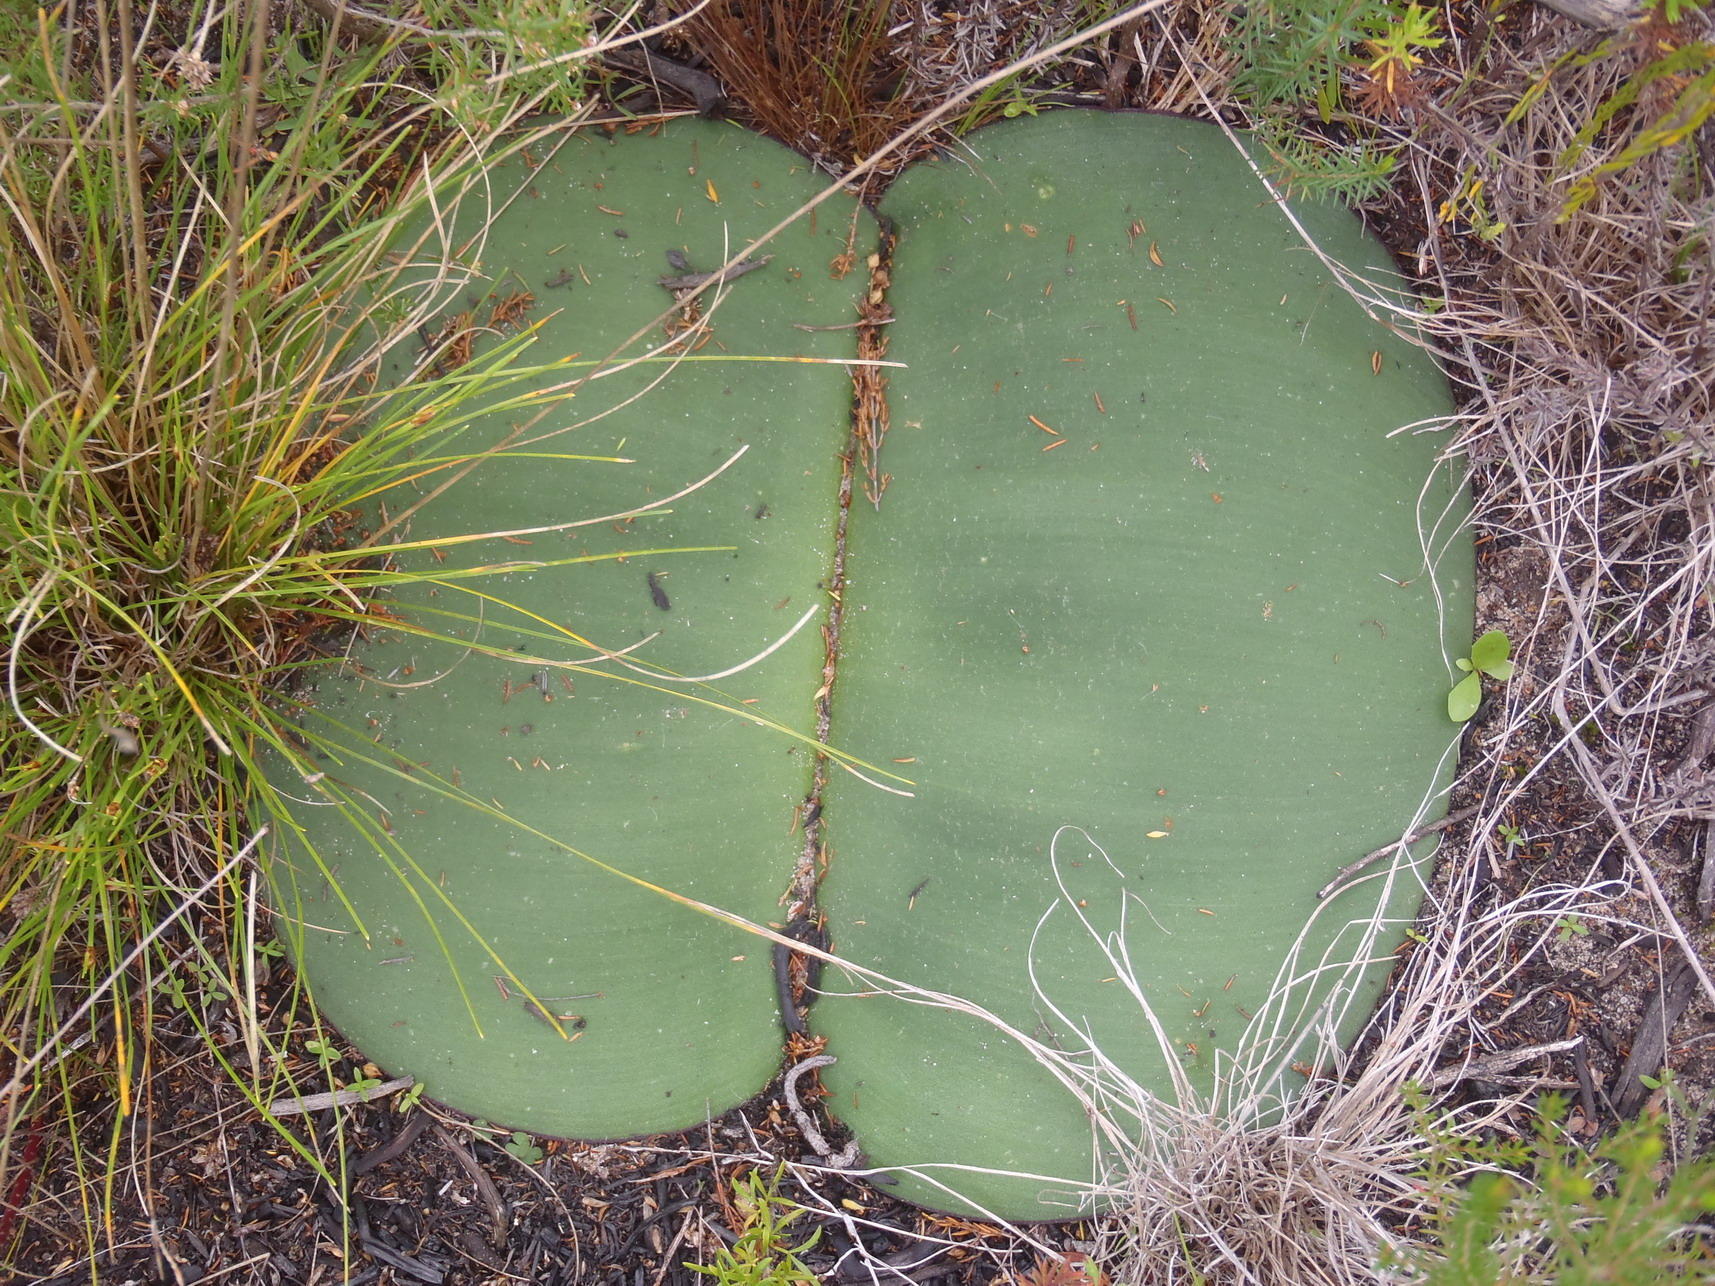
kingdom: Plantae
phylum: Tracheophyta
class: Liliopsida
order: Asparagales
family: Amaryllidaceae
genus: Haemanthus
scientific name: Haemanthus sanguineus
